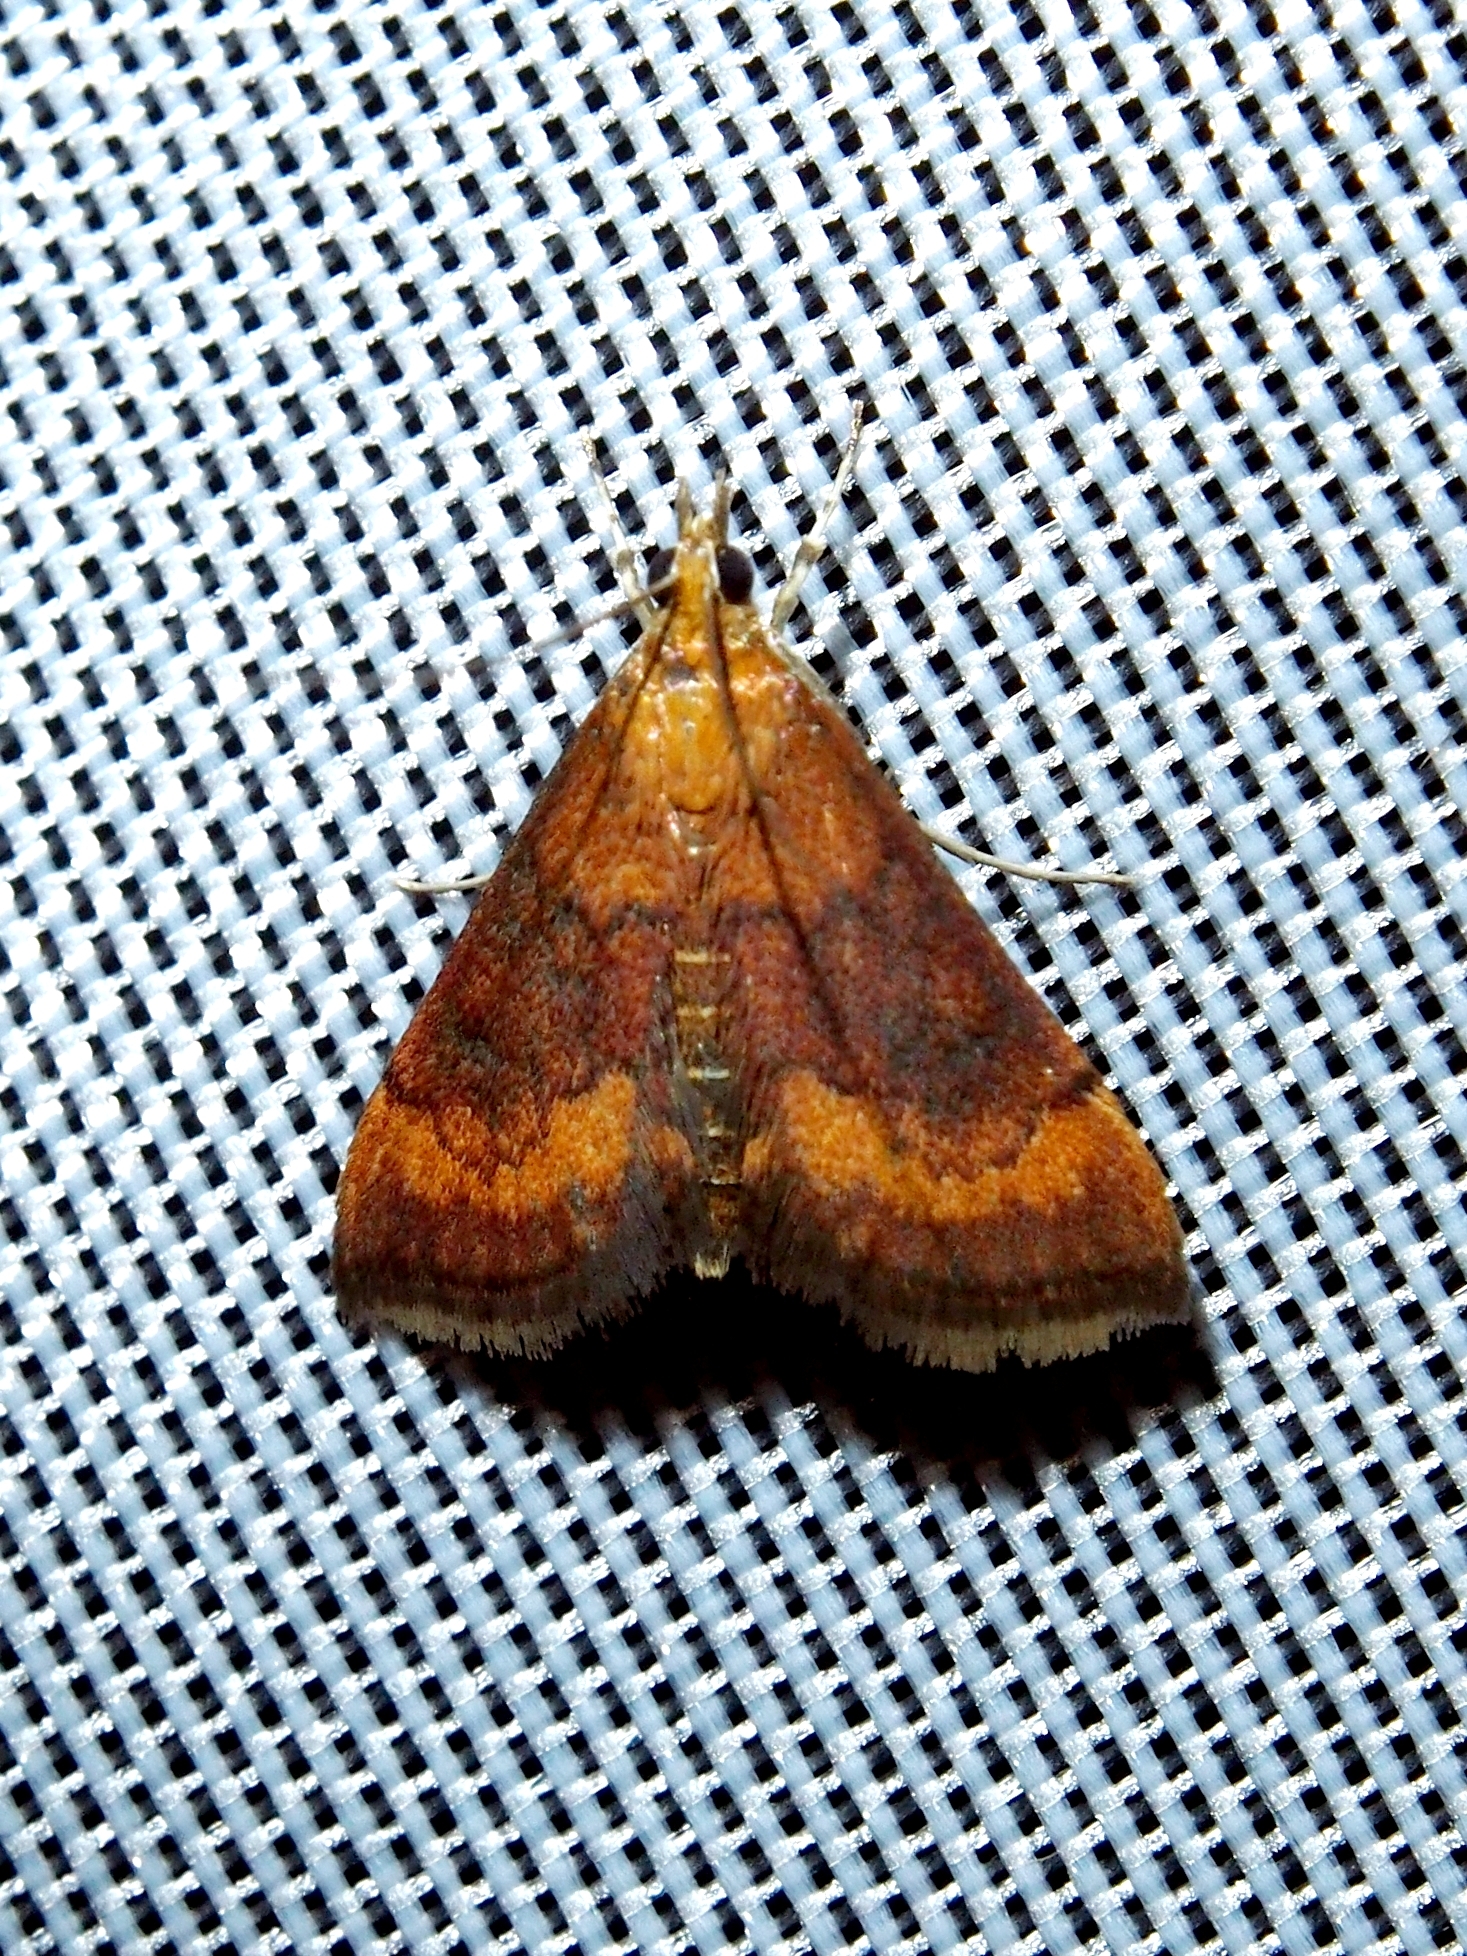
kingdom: Animalia
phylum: Arthropoda
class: Insecta
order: Lepidoptera
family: Crambidae
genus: Pyrausta
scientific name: Pyrausta rubricalis
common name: Variable reddish pyrausta
